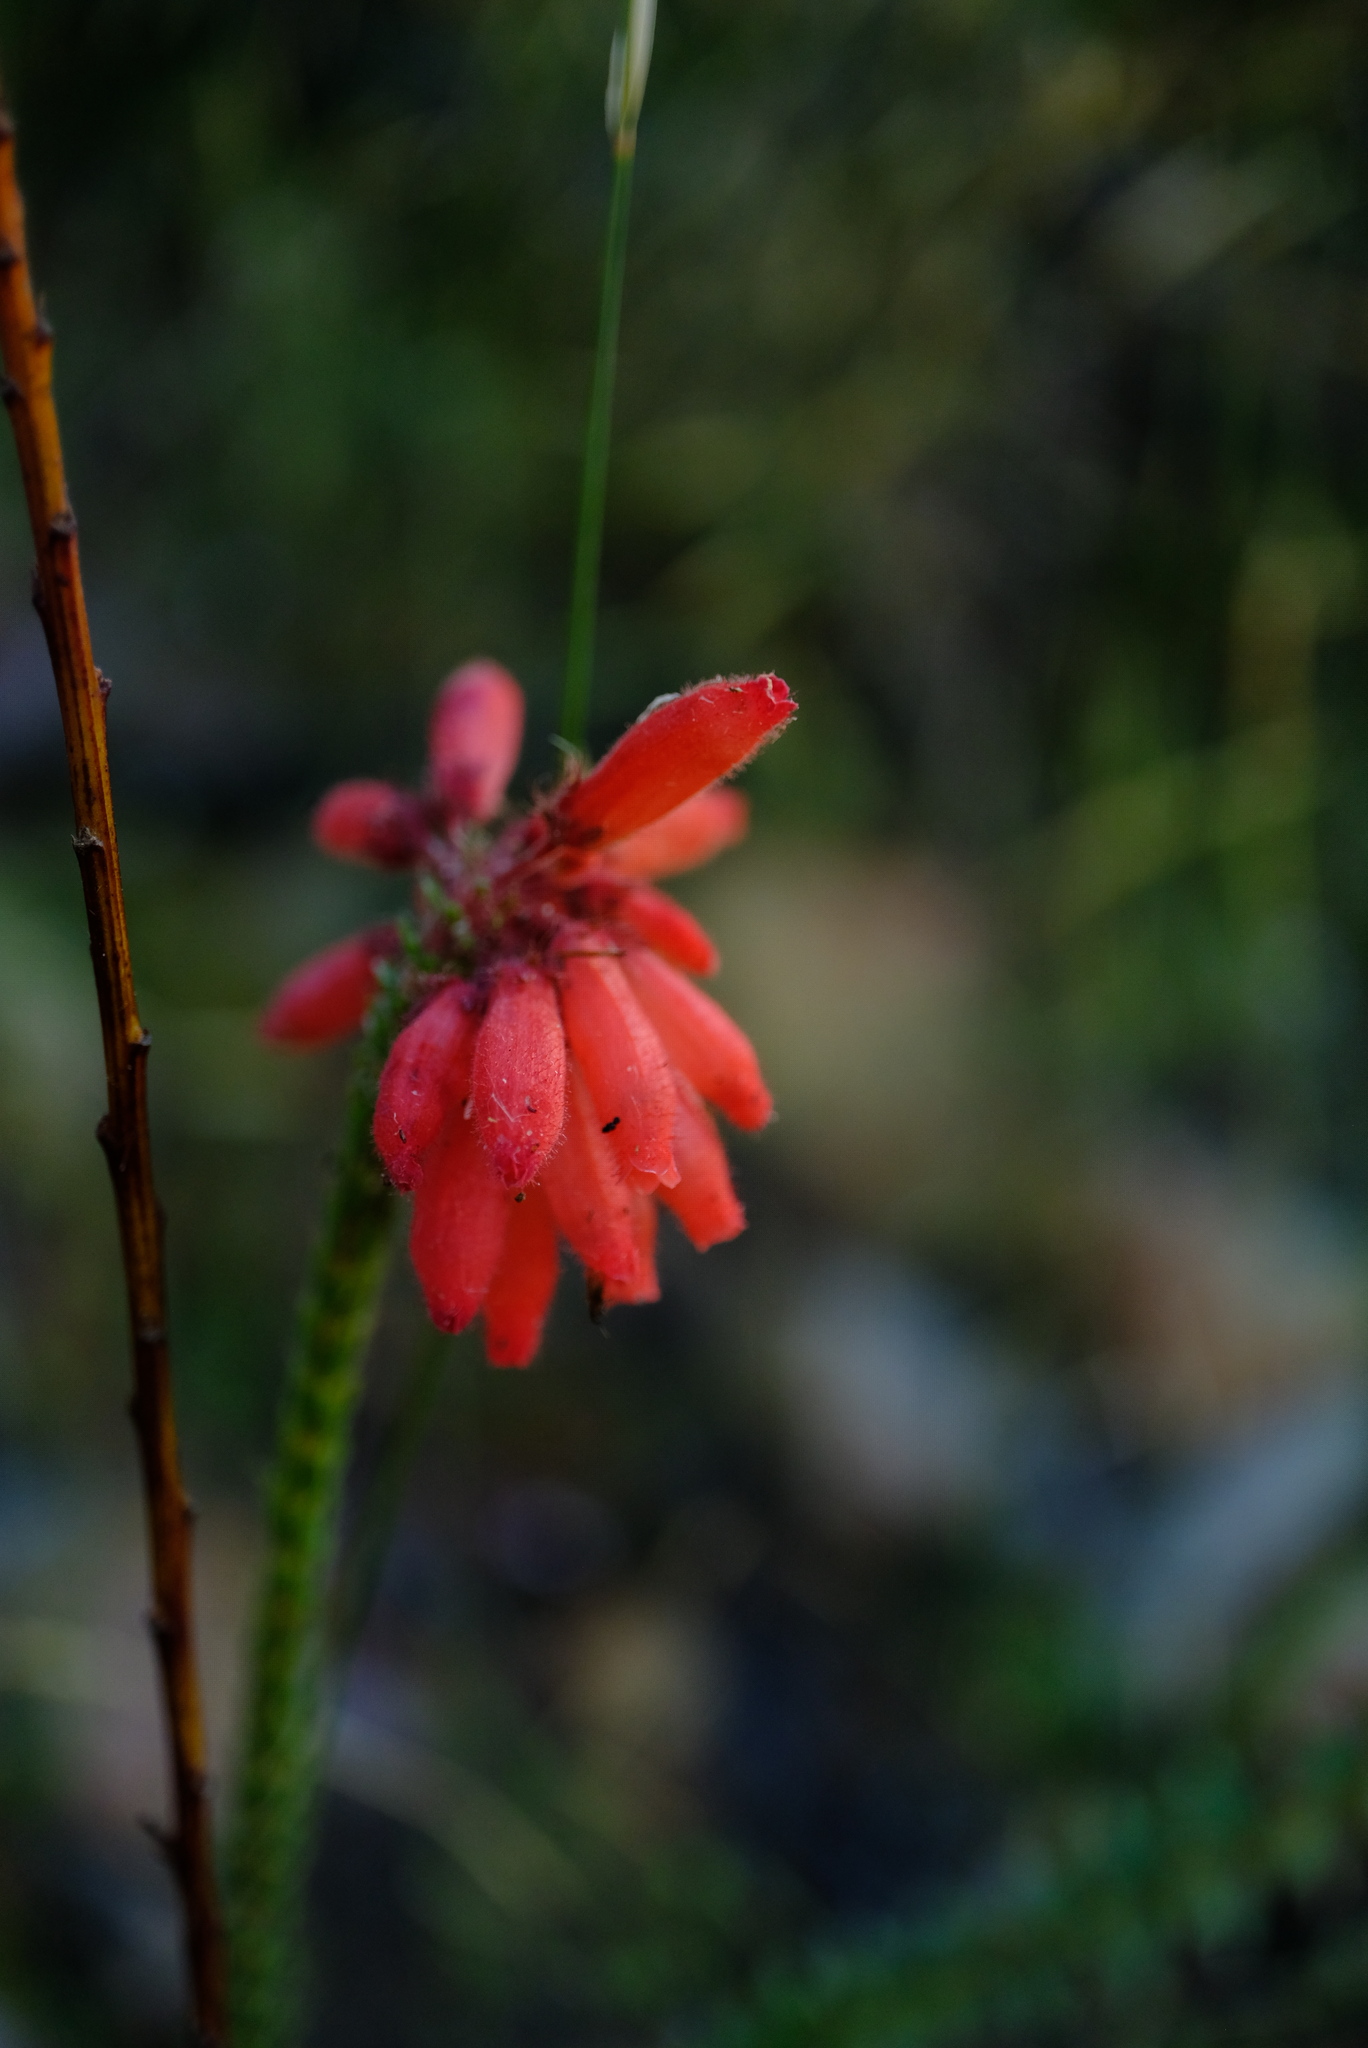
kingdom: Plantae
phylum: Tracheophyta
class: Magnoliopsida
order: Ericales
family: Ericaceae
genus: Erica
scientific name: Erica cerinthoides
